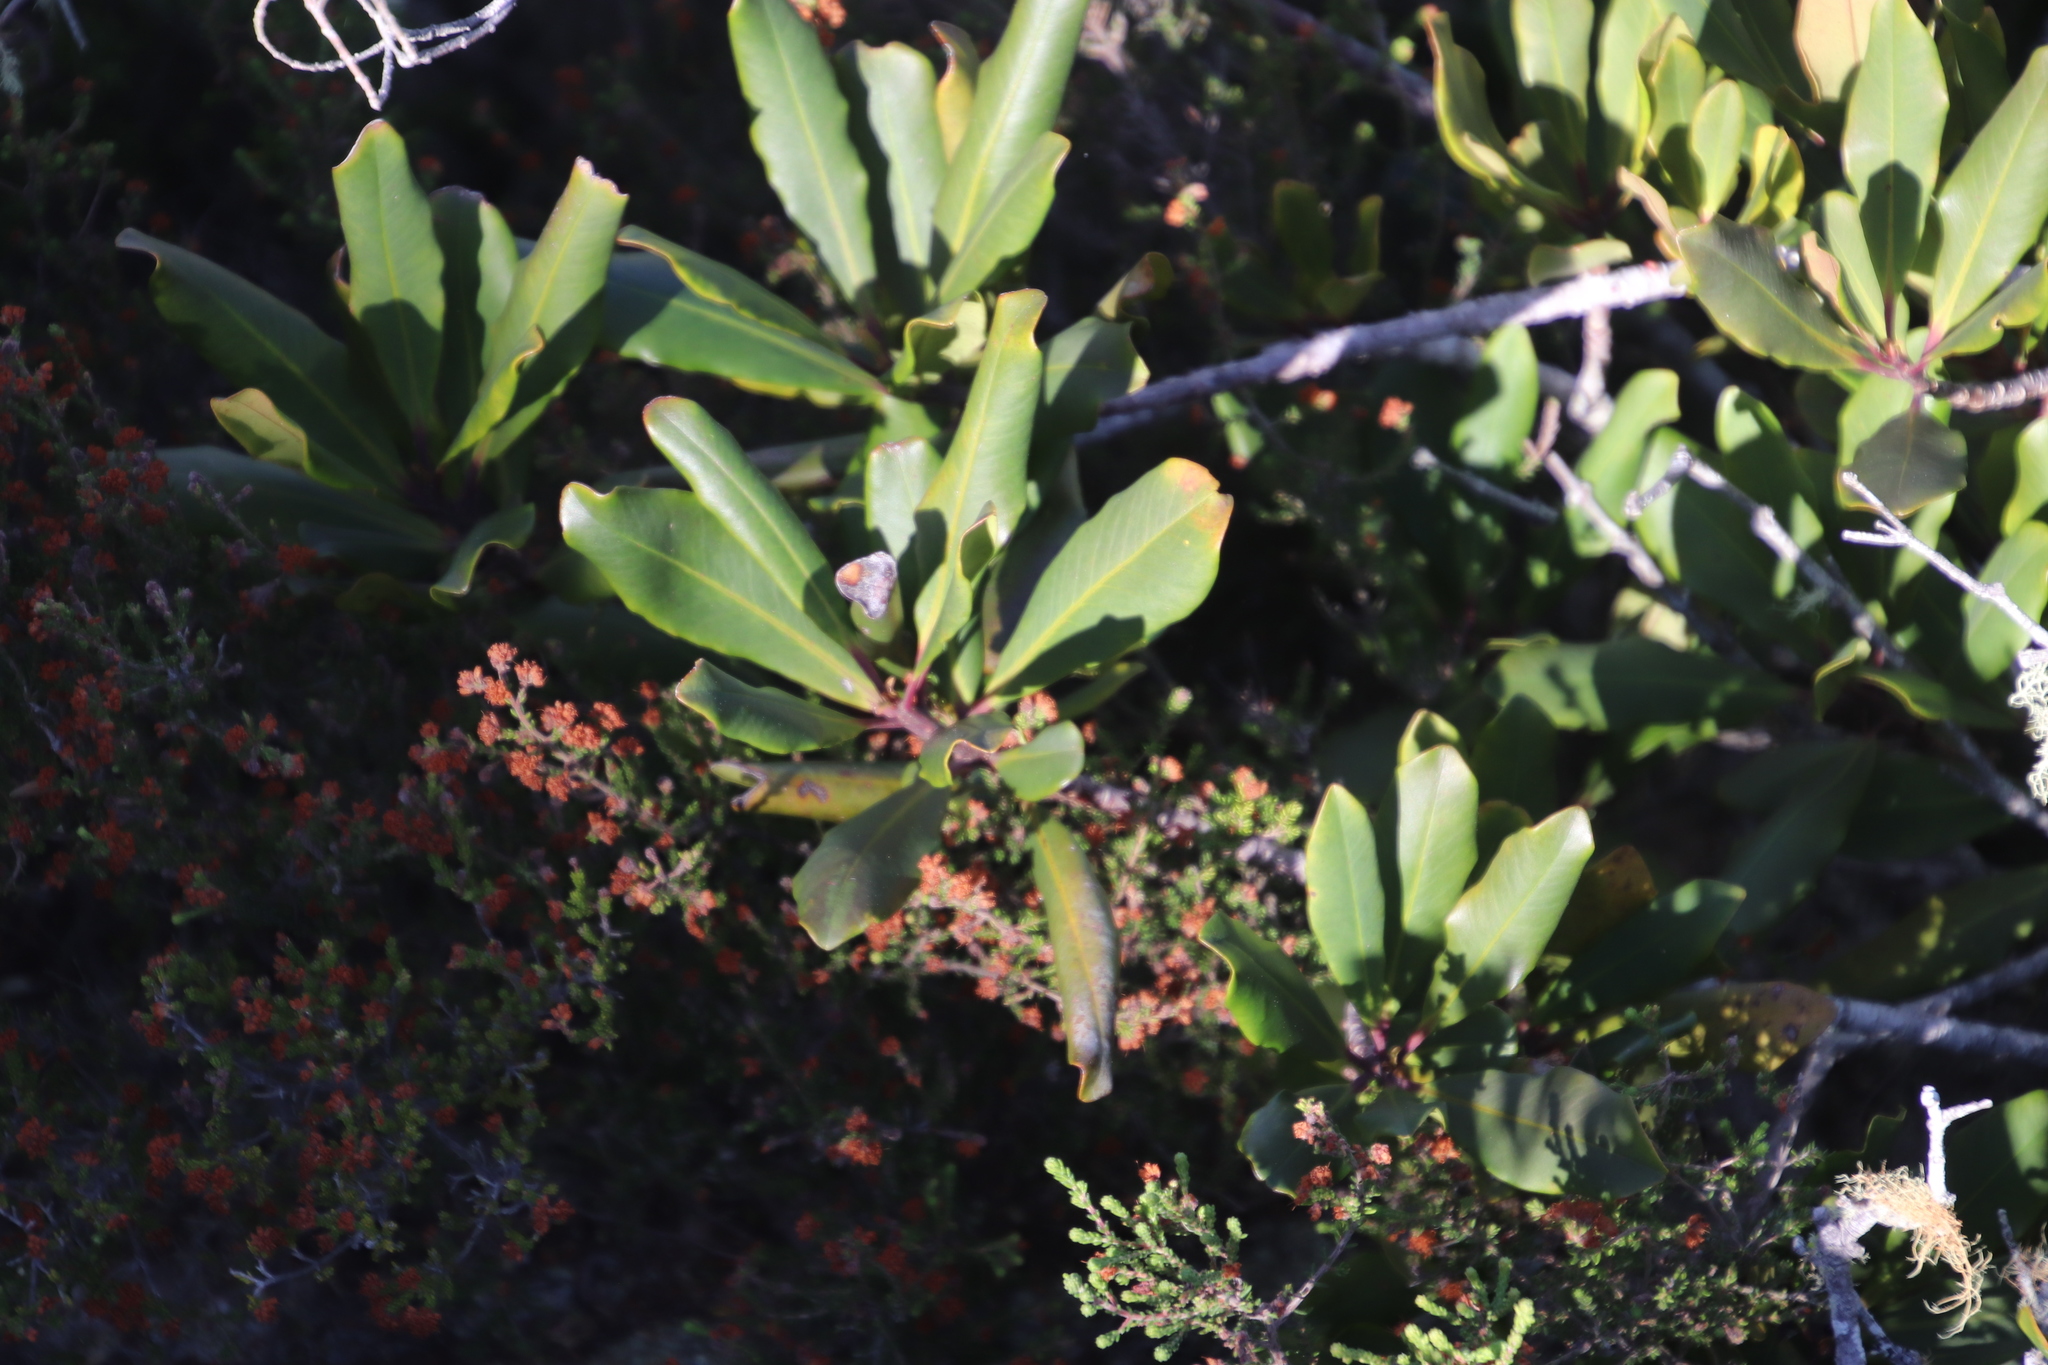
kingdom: Plantae
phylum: Tracheophyta
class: Magnoliopsida
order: Ericales
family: Primulaceae
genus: Myrsine
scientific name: Myrsine melanophloeos
